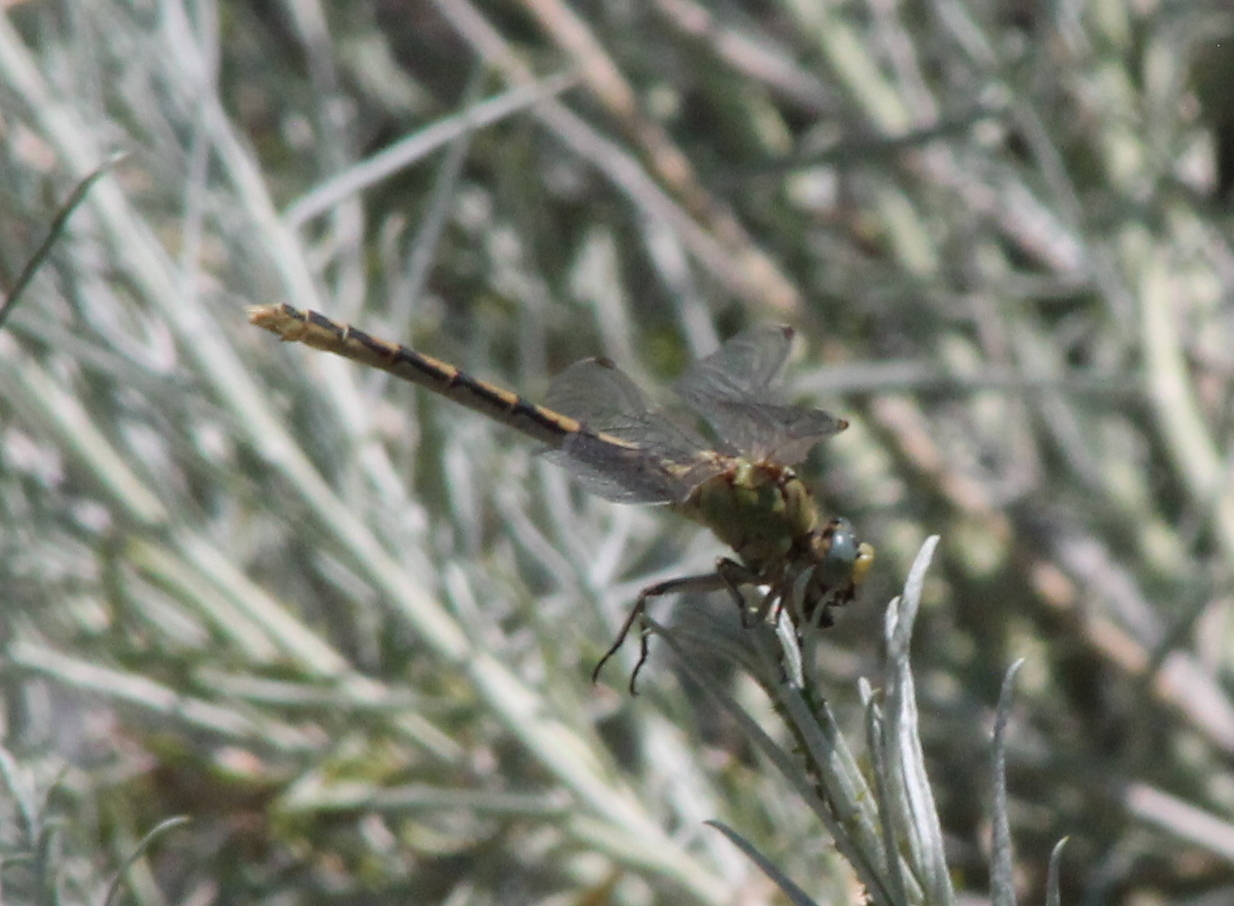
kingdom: Animalia
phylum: Arthropoda
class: Insecta
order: Odonata
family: Gomphidae
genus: Ophiogomphus
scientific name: Ophiogomphus severus
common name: Pale snaketail
